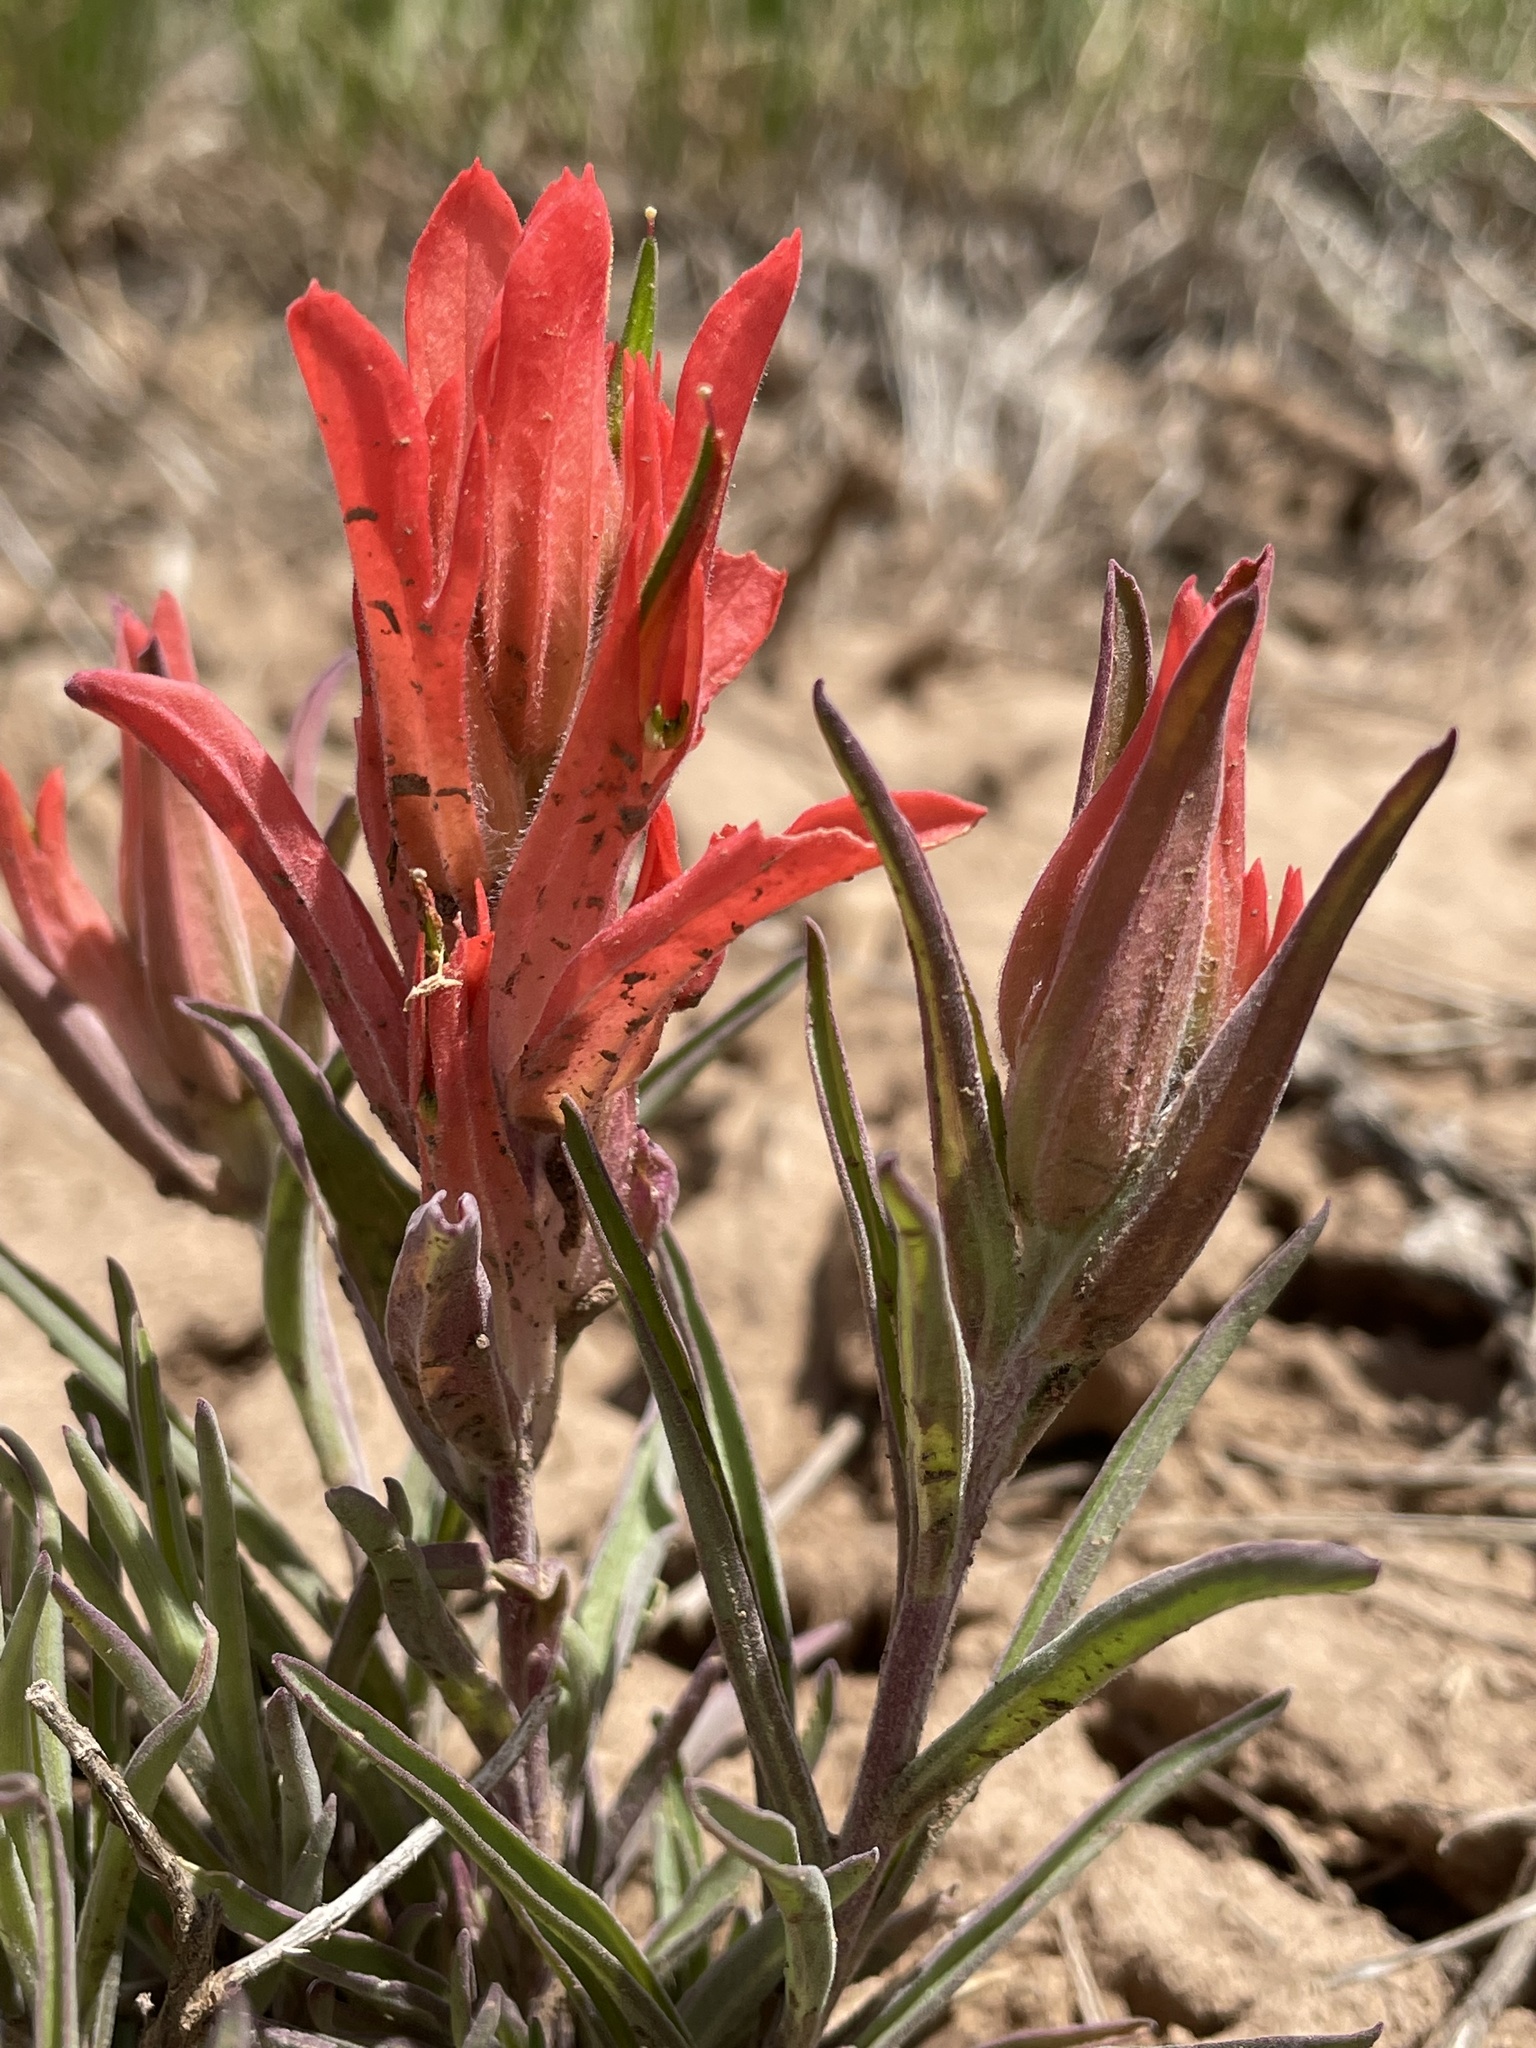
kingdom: Plantae
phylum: Tracheophyta
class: Magnoliopsida
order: Lamiales
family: Orobanchaceae
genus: Castilleja
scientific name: Castilleja integra
